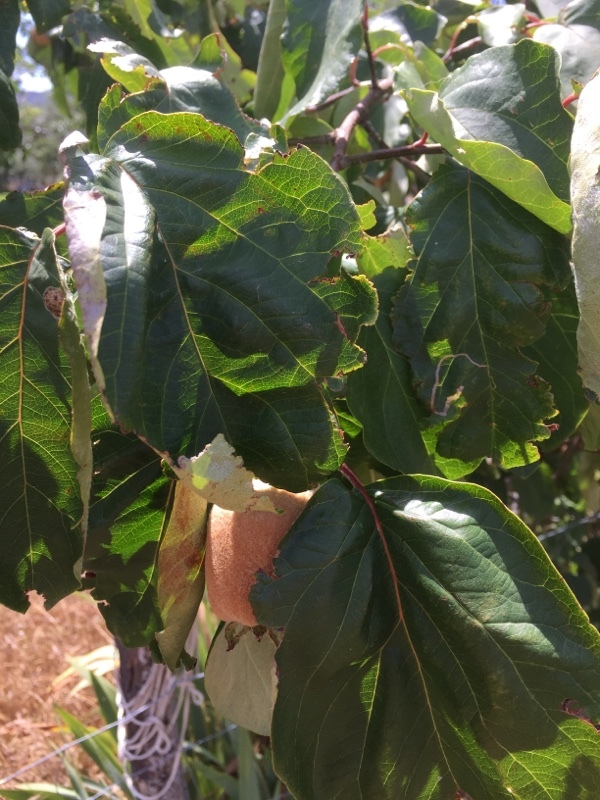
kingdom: Plantae
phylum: Tracheophyta
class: Magnoliopsida
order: Rosales
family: Rosaceae
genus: Cydonia
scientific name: Cydonia oblonga
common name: Quince
